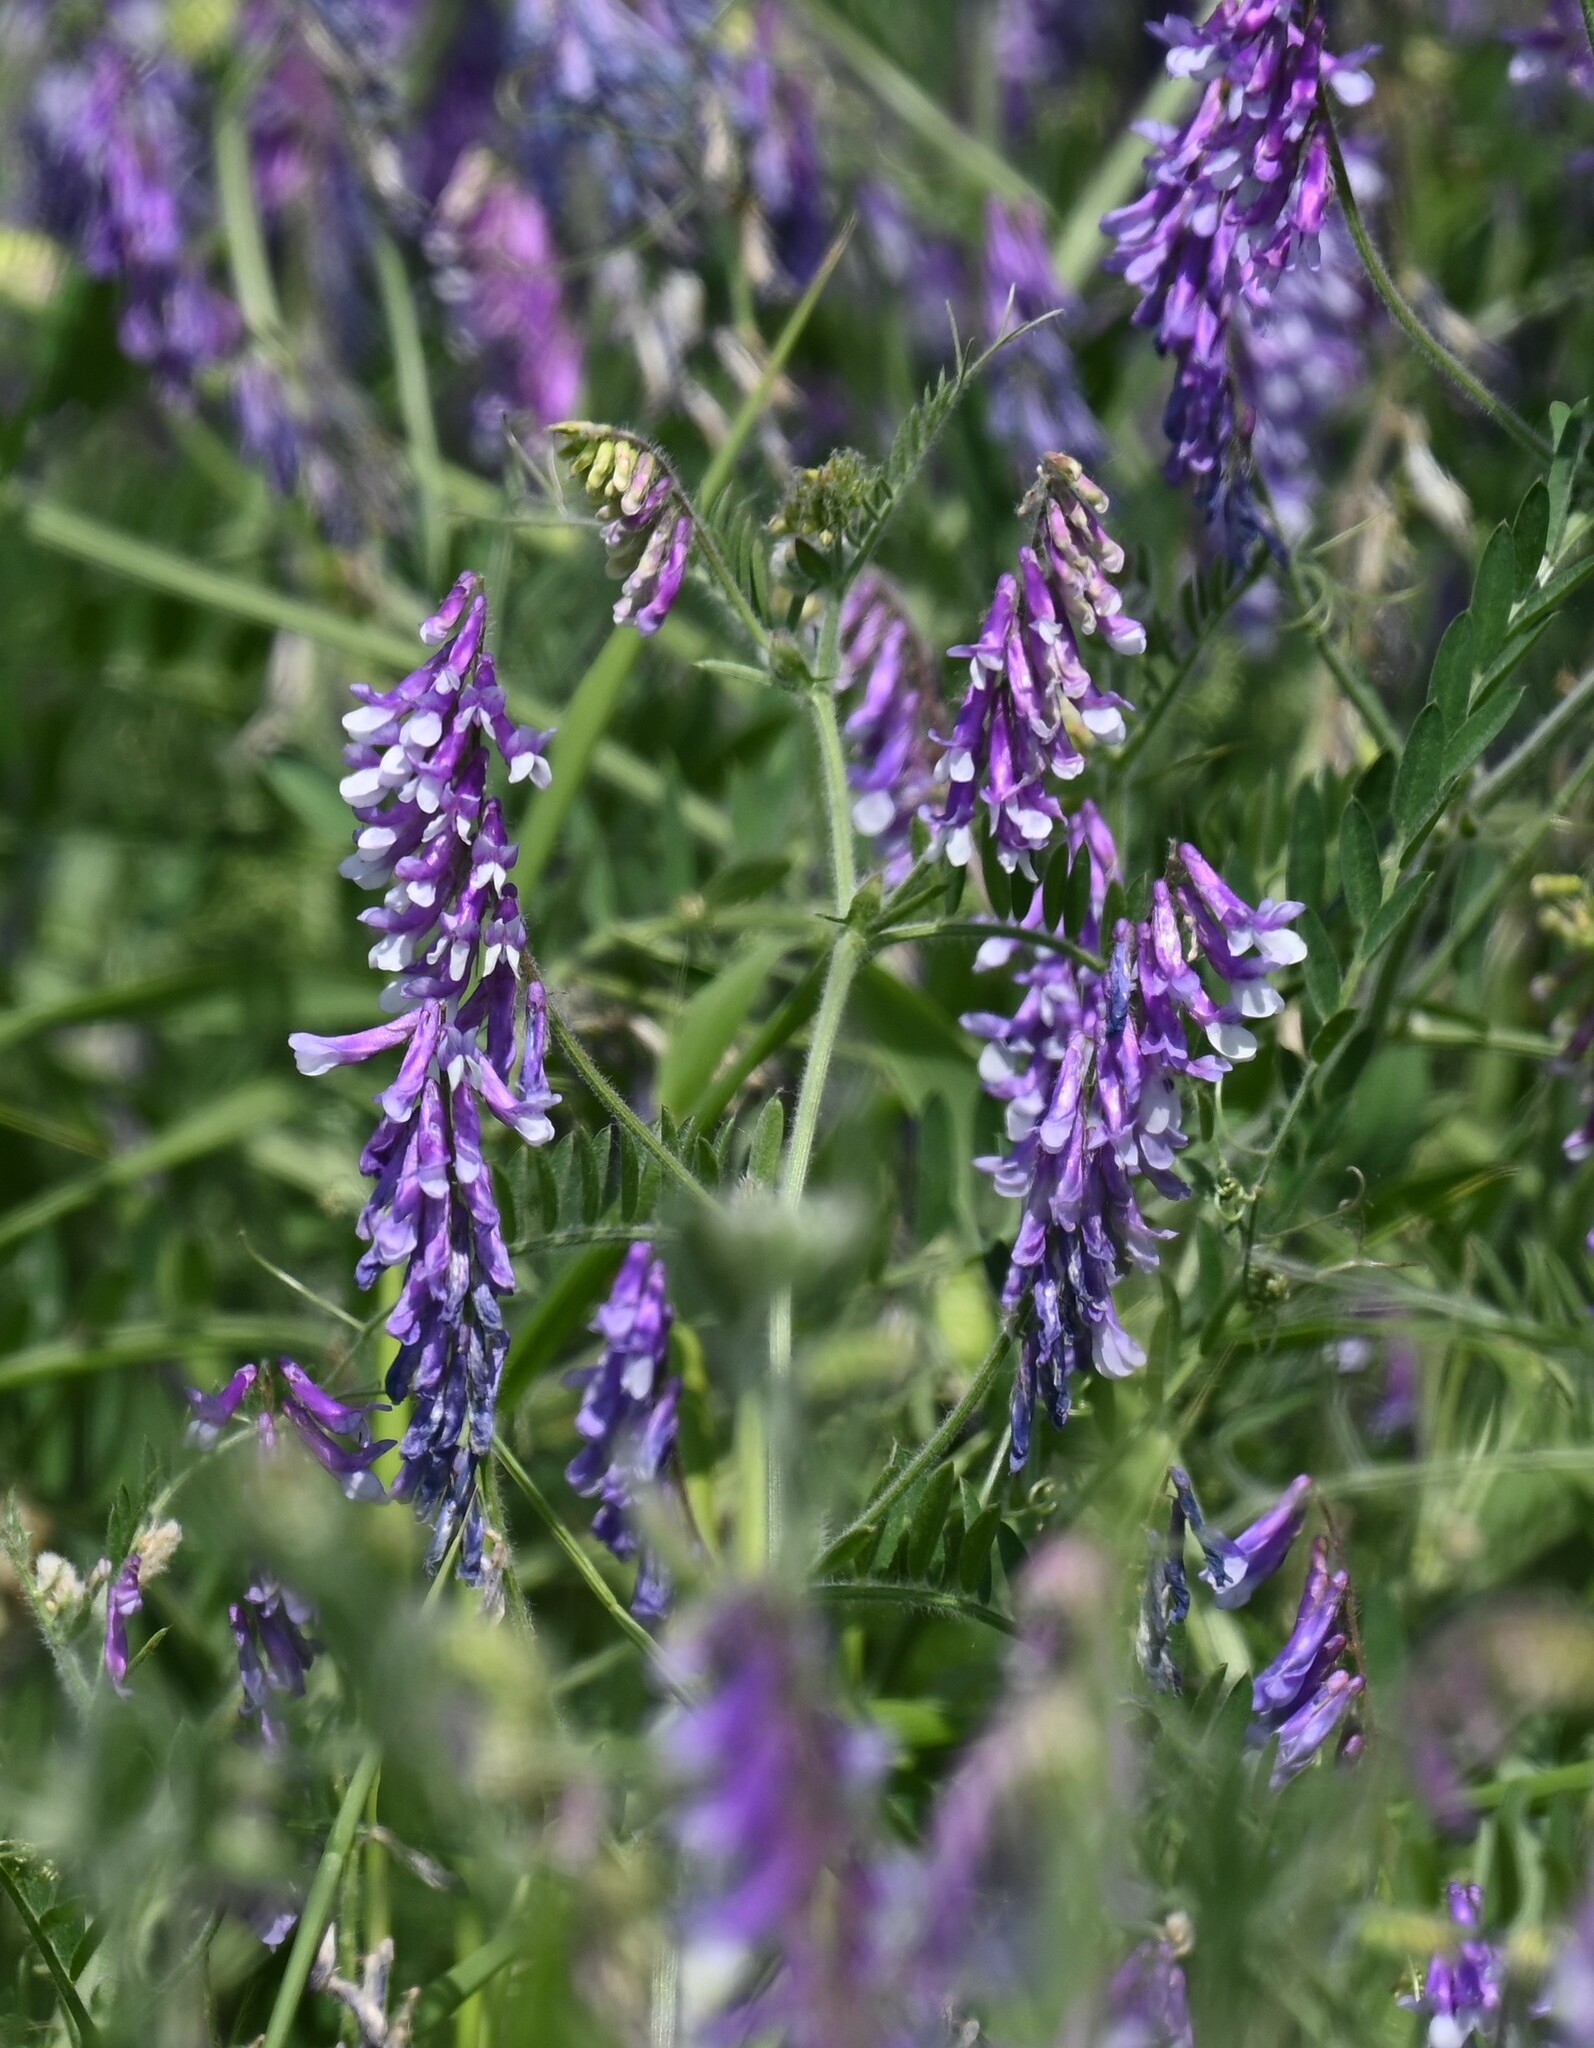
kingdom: Plantae
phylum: Tracheophyta
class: Magnoliopsida
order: Fabales
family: Fabaceae
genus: Vicia
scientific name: Vicia villosa
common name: Fodder vetch
